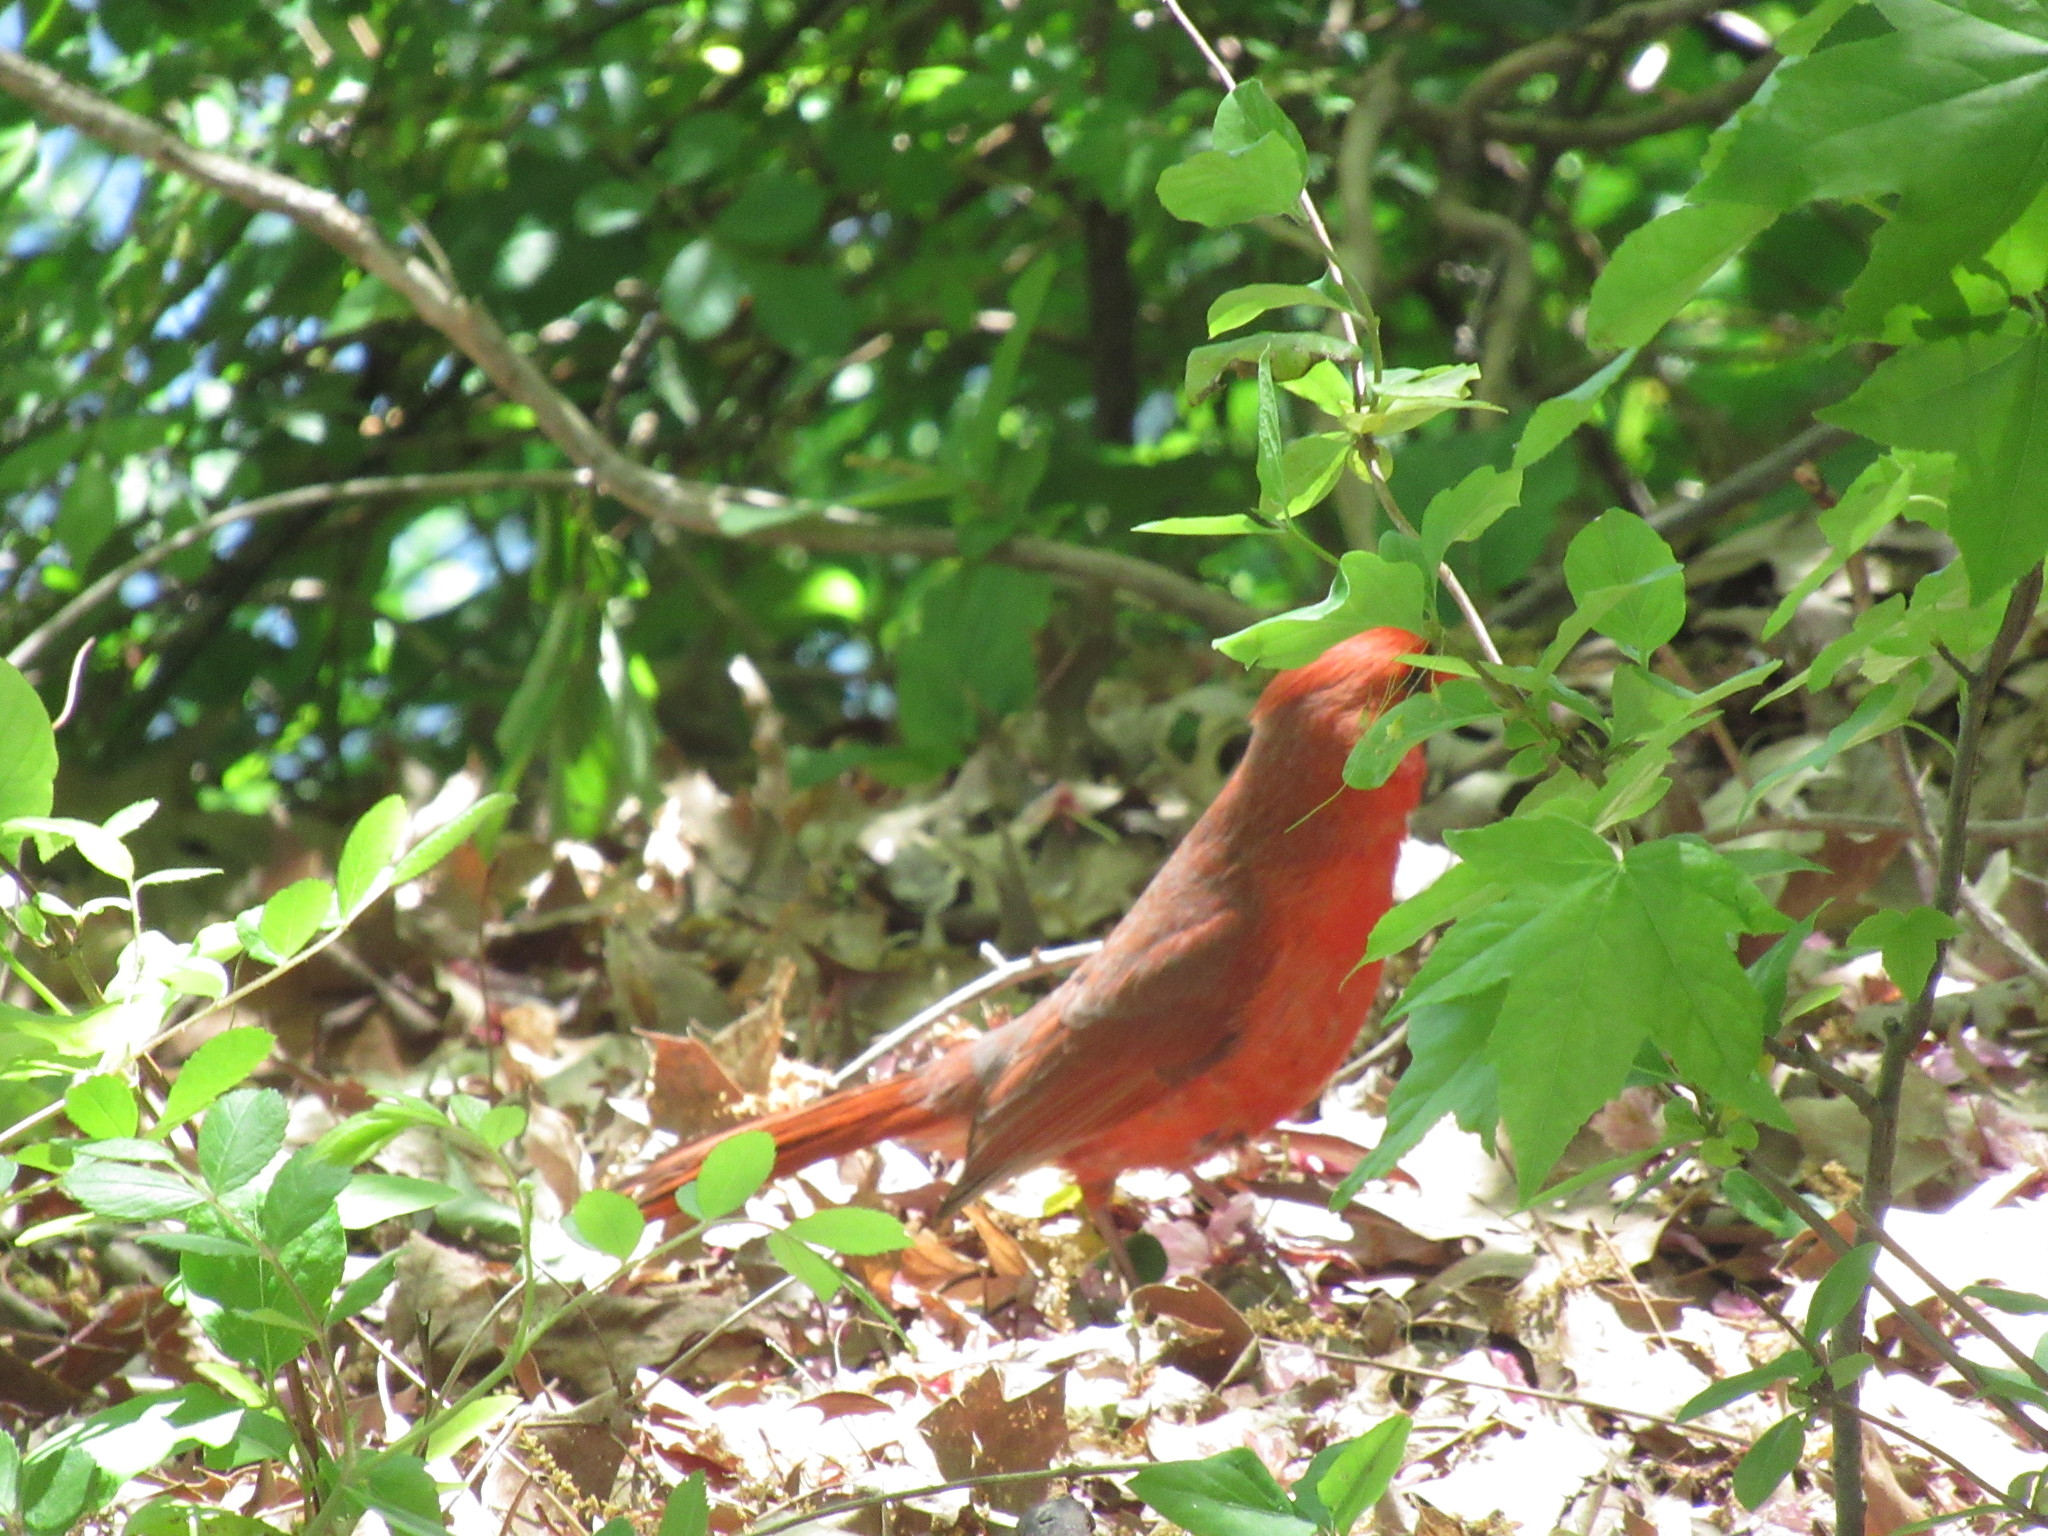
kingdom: Animalia
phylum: Chordata
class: Aves
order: Passeriformes
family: Cardinalidae
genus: Cardinalis
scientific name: Cardinalis cardinalis
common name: Northern cardinal
